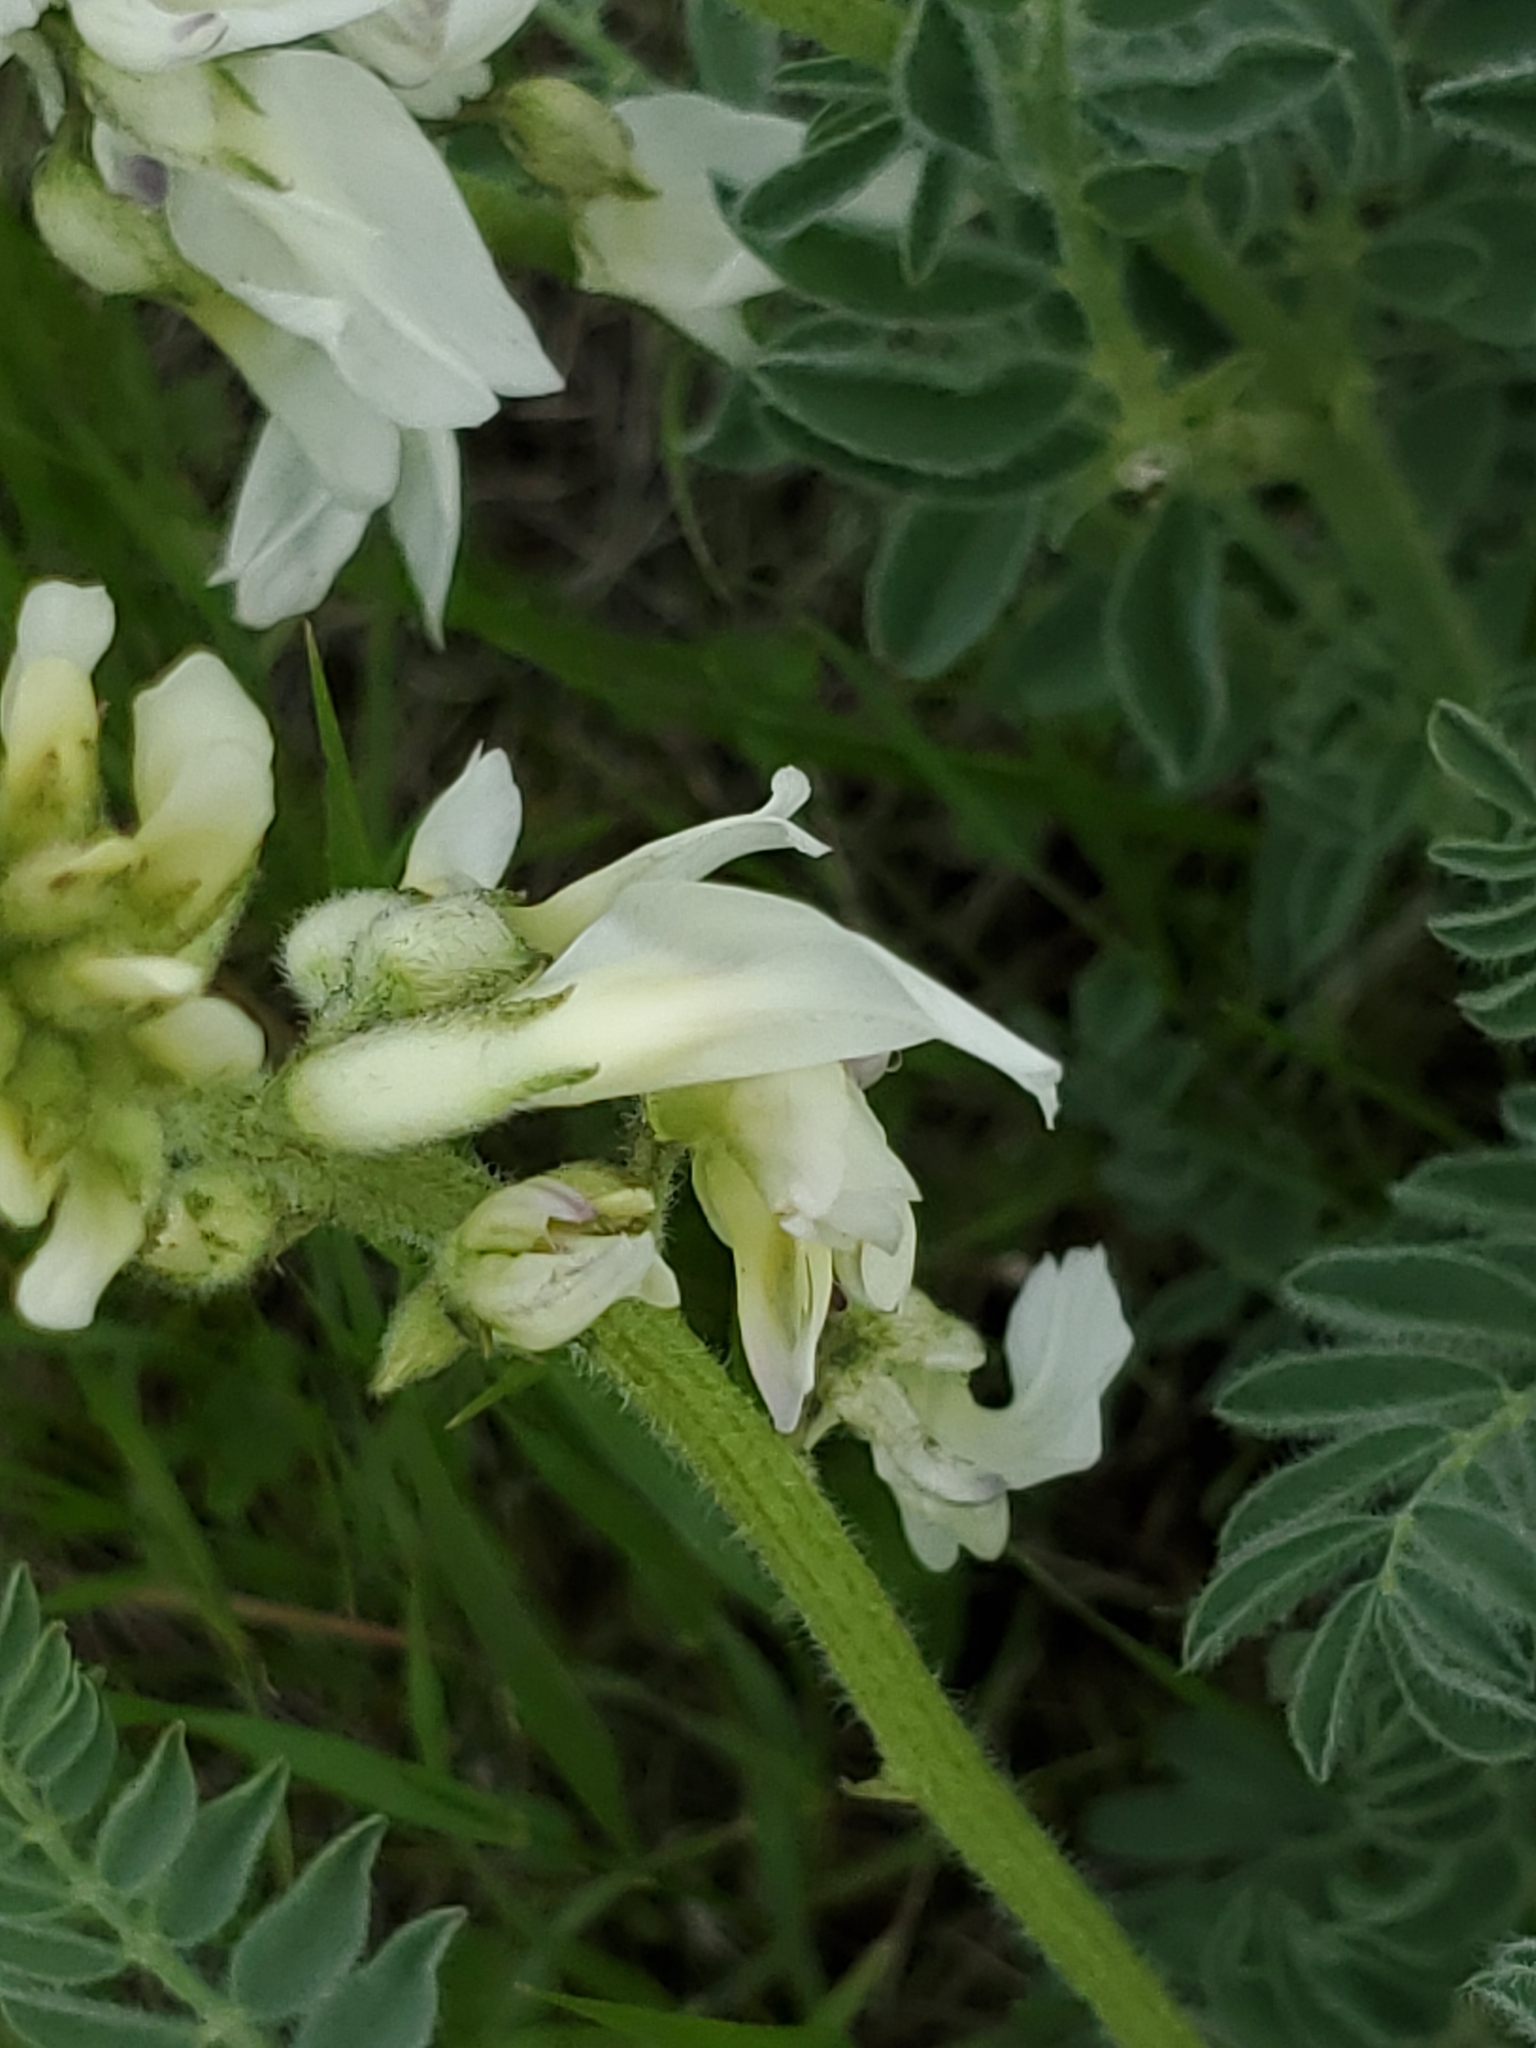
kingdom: Plantae
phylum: Tracheophyta
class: Magnoliopsida
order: Fabales
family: Fabaceae
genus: Astragalus
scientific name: Astragalus drummondii
